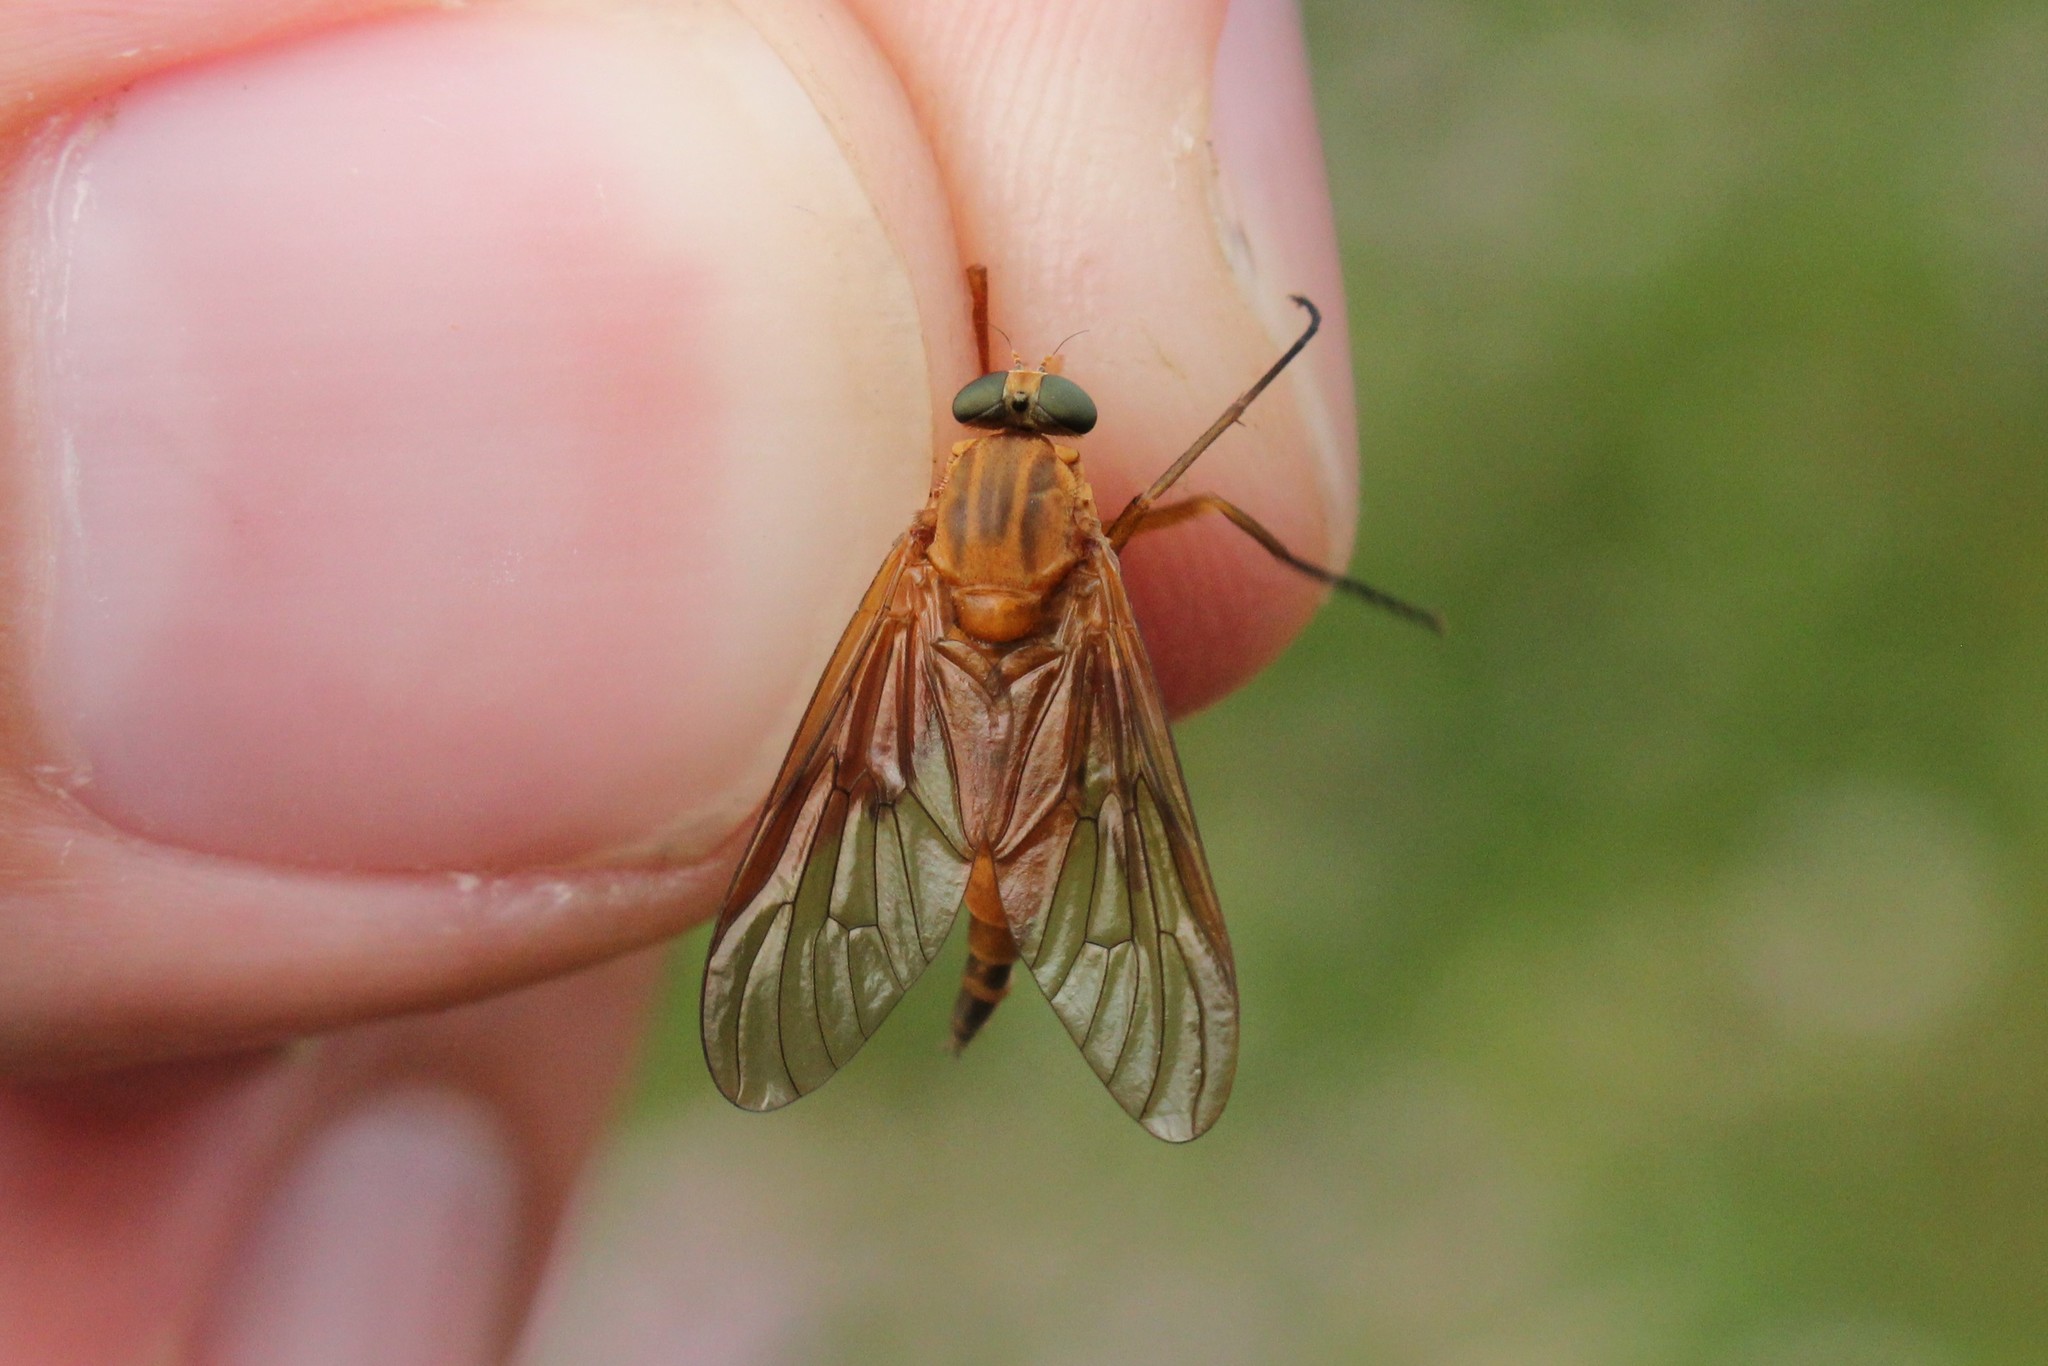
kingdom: Animalia
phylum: Arthropoda
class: Insecta
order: Diptera
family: Rhagionidae
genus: Rhagio
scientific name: Rhagio tringaria
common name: Marsh snipefly
